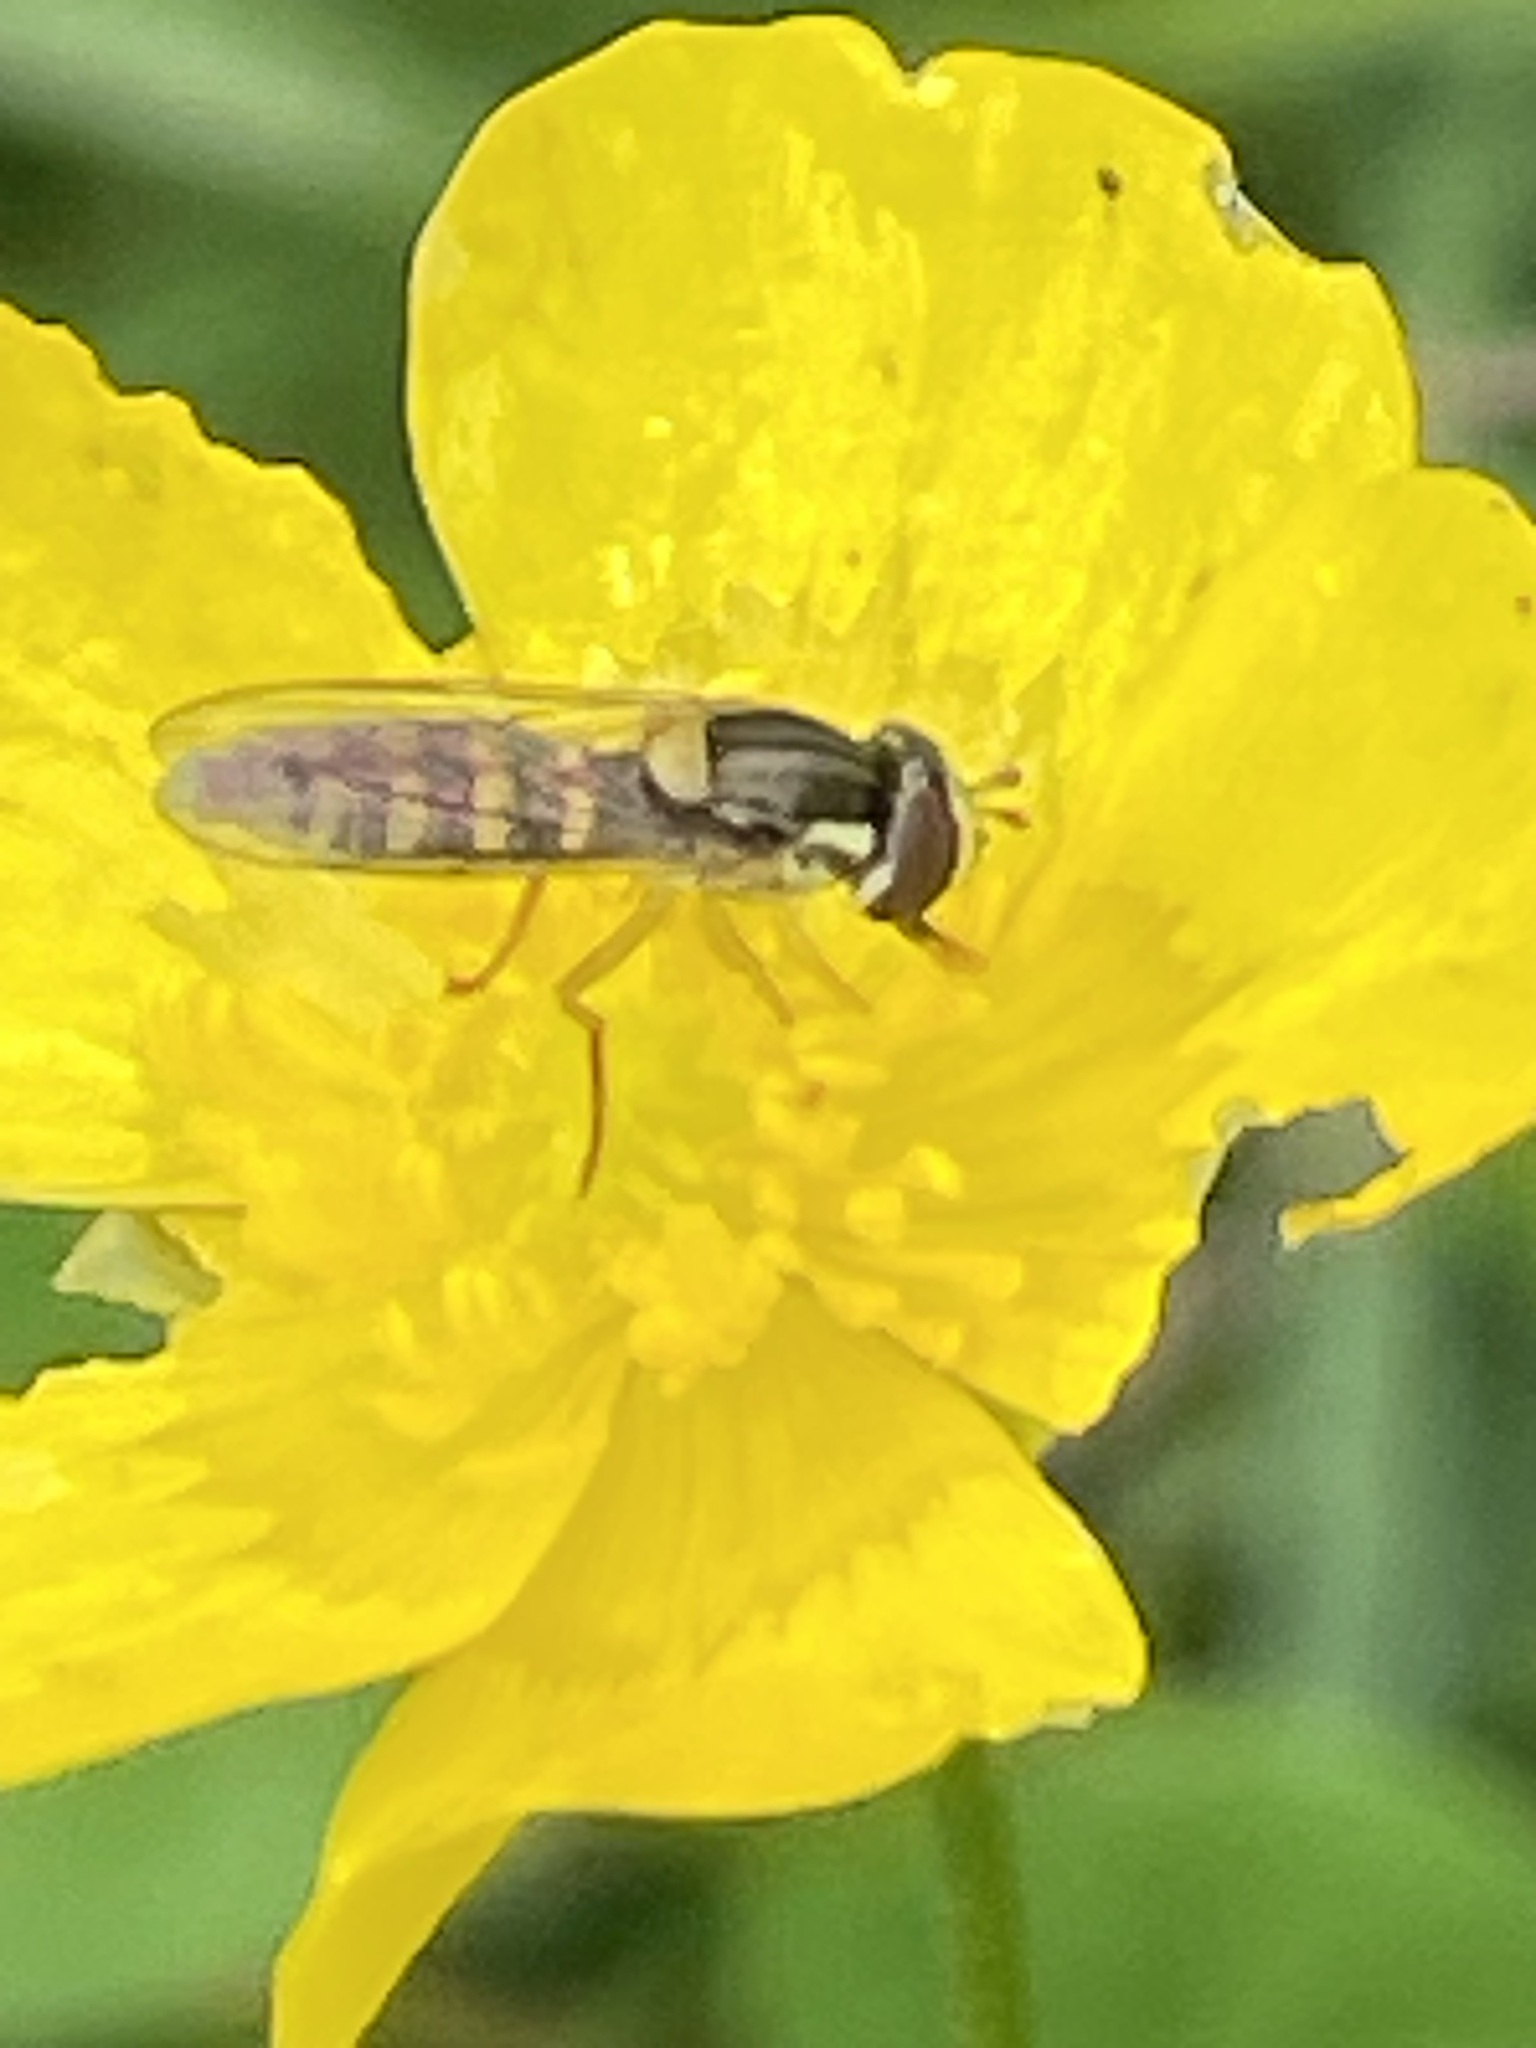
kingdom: Animalia
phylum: Arthropoda
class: Insecta
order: Diptera
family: Syrphidae
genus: Sphaerophoria
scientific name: Sphaerophoria
